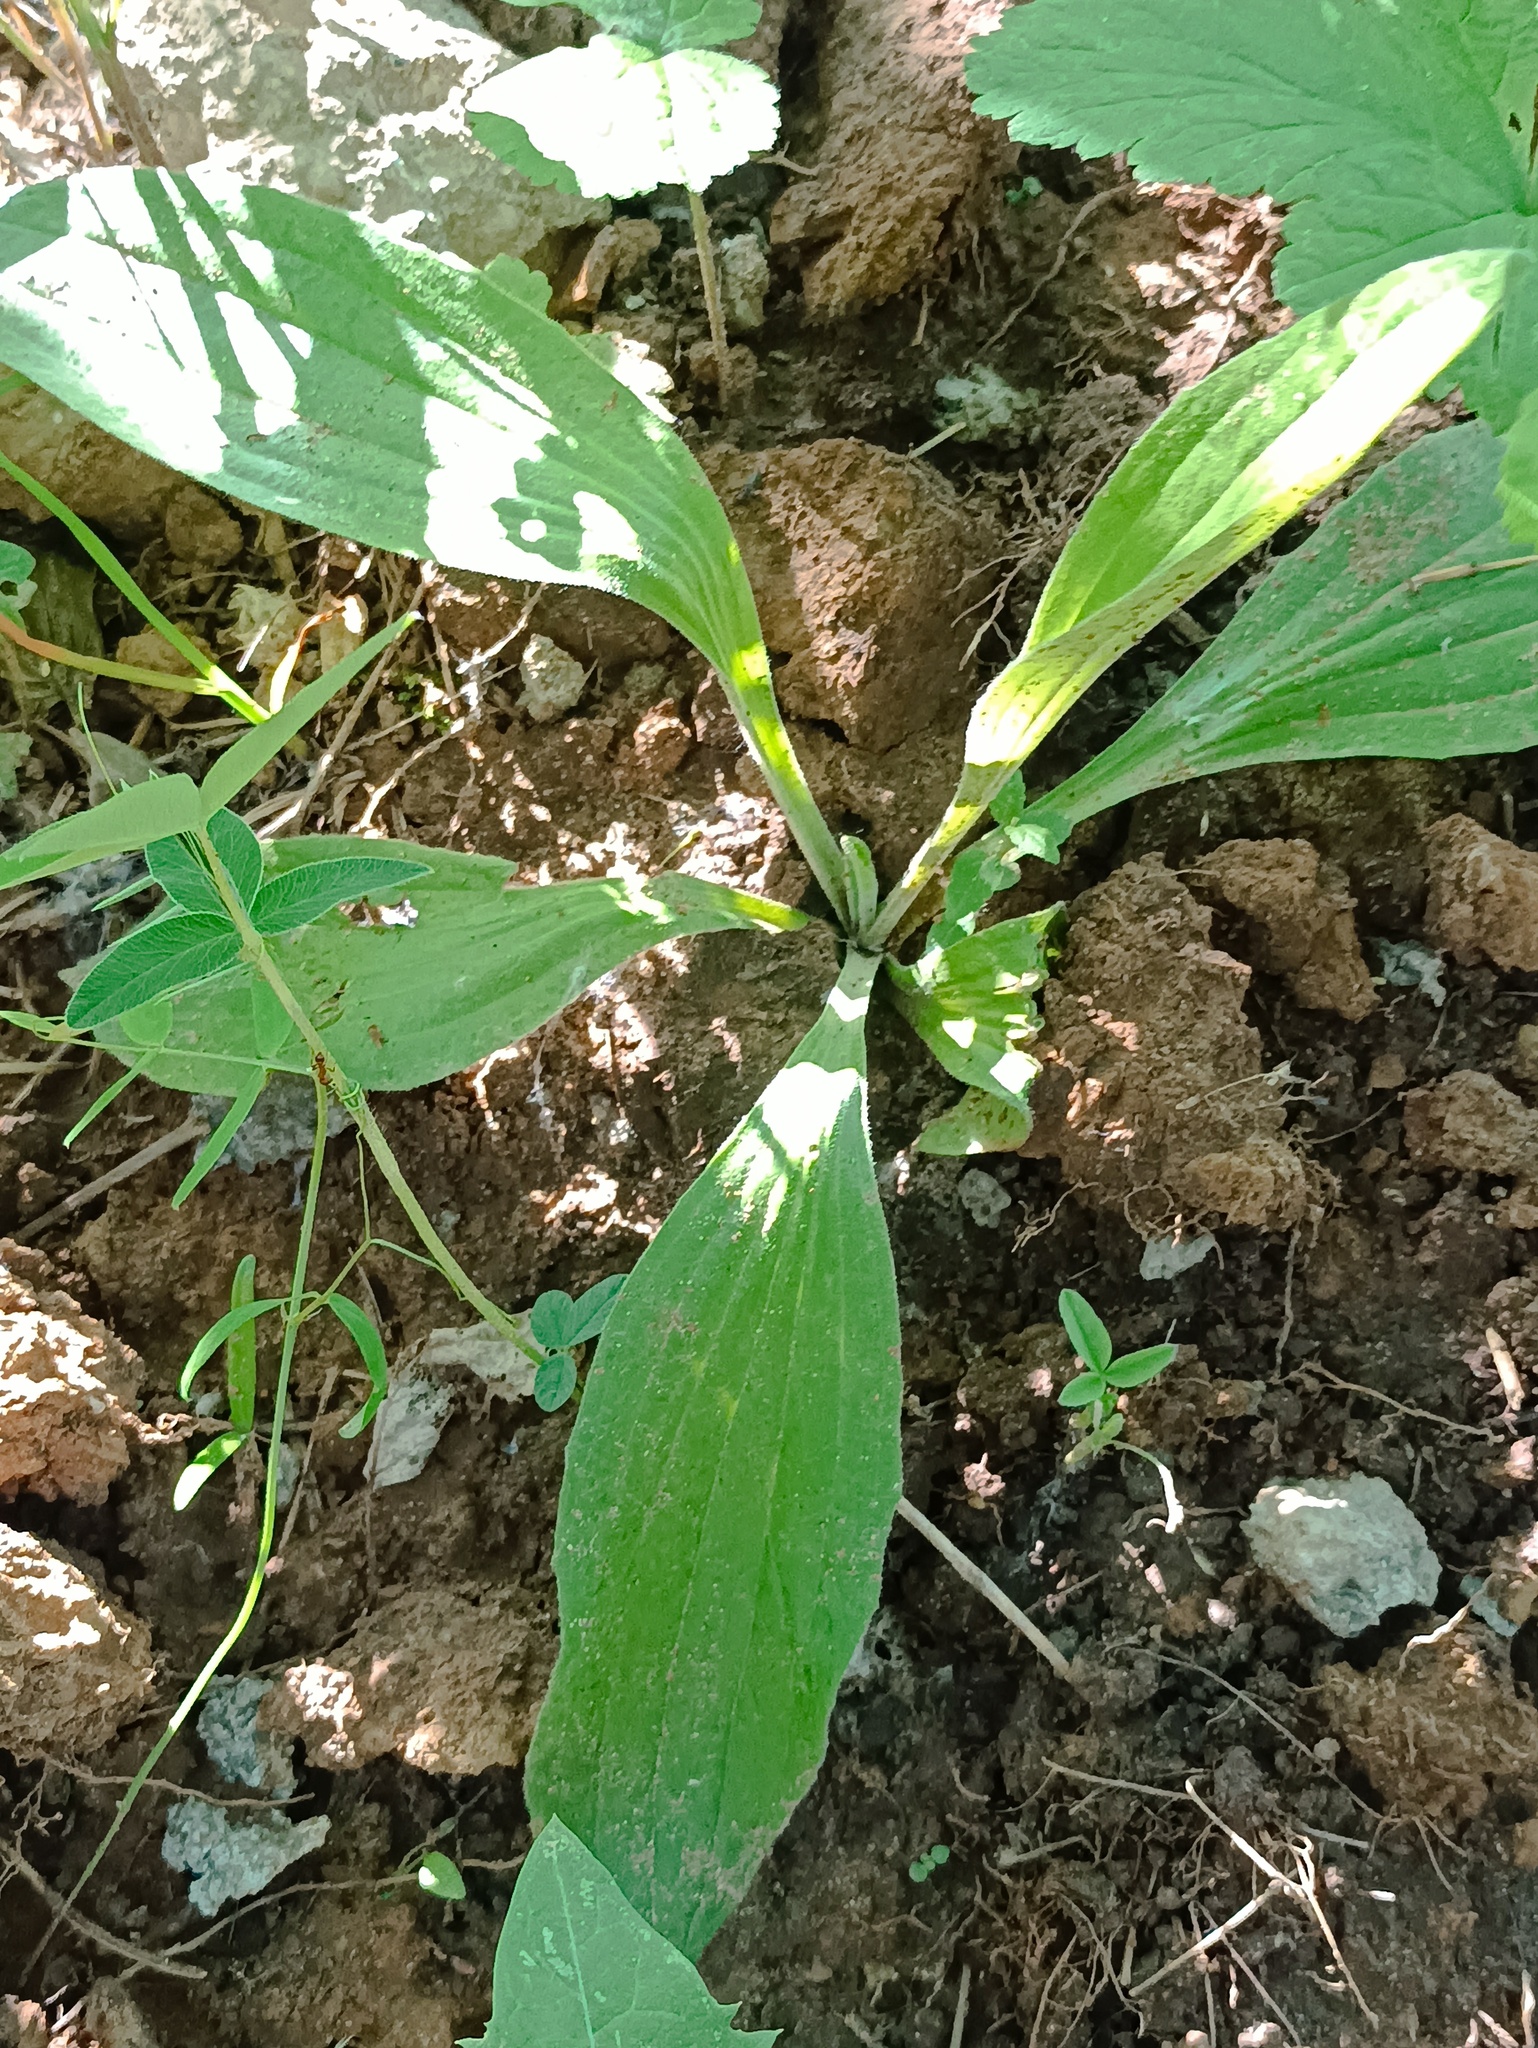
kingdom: Plantae
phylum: Tracheophyta
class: Magnoliopsida
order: Lamiales
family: Plantaginaceae
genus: Plantago
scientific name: Plantago urvillei
